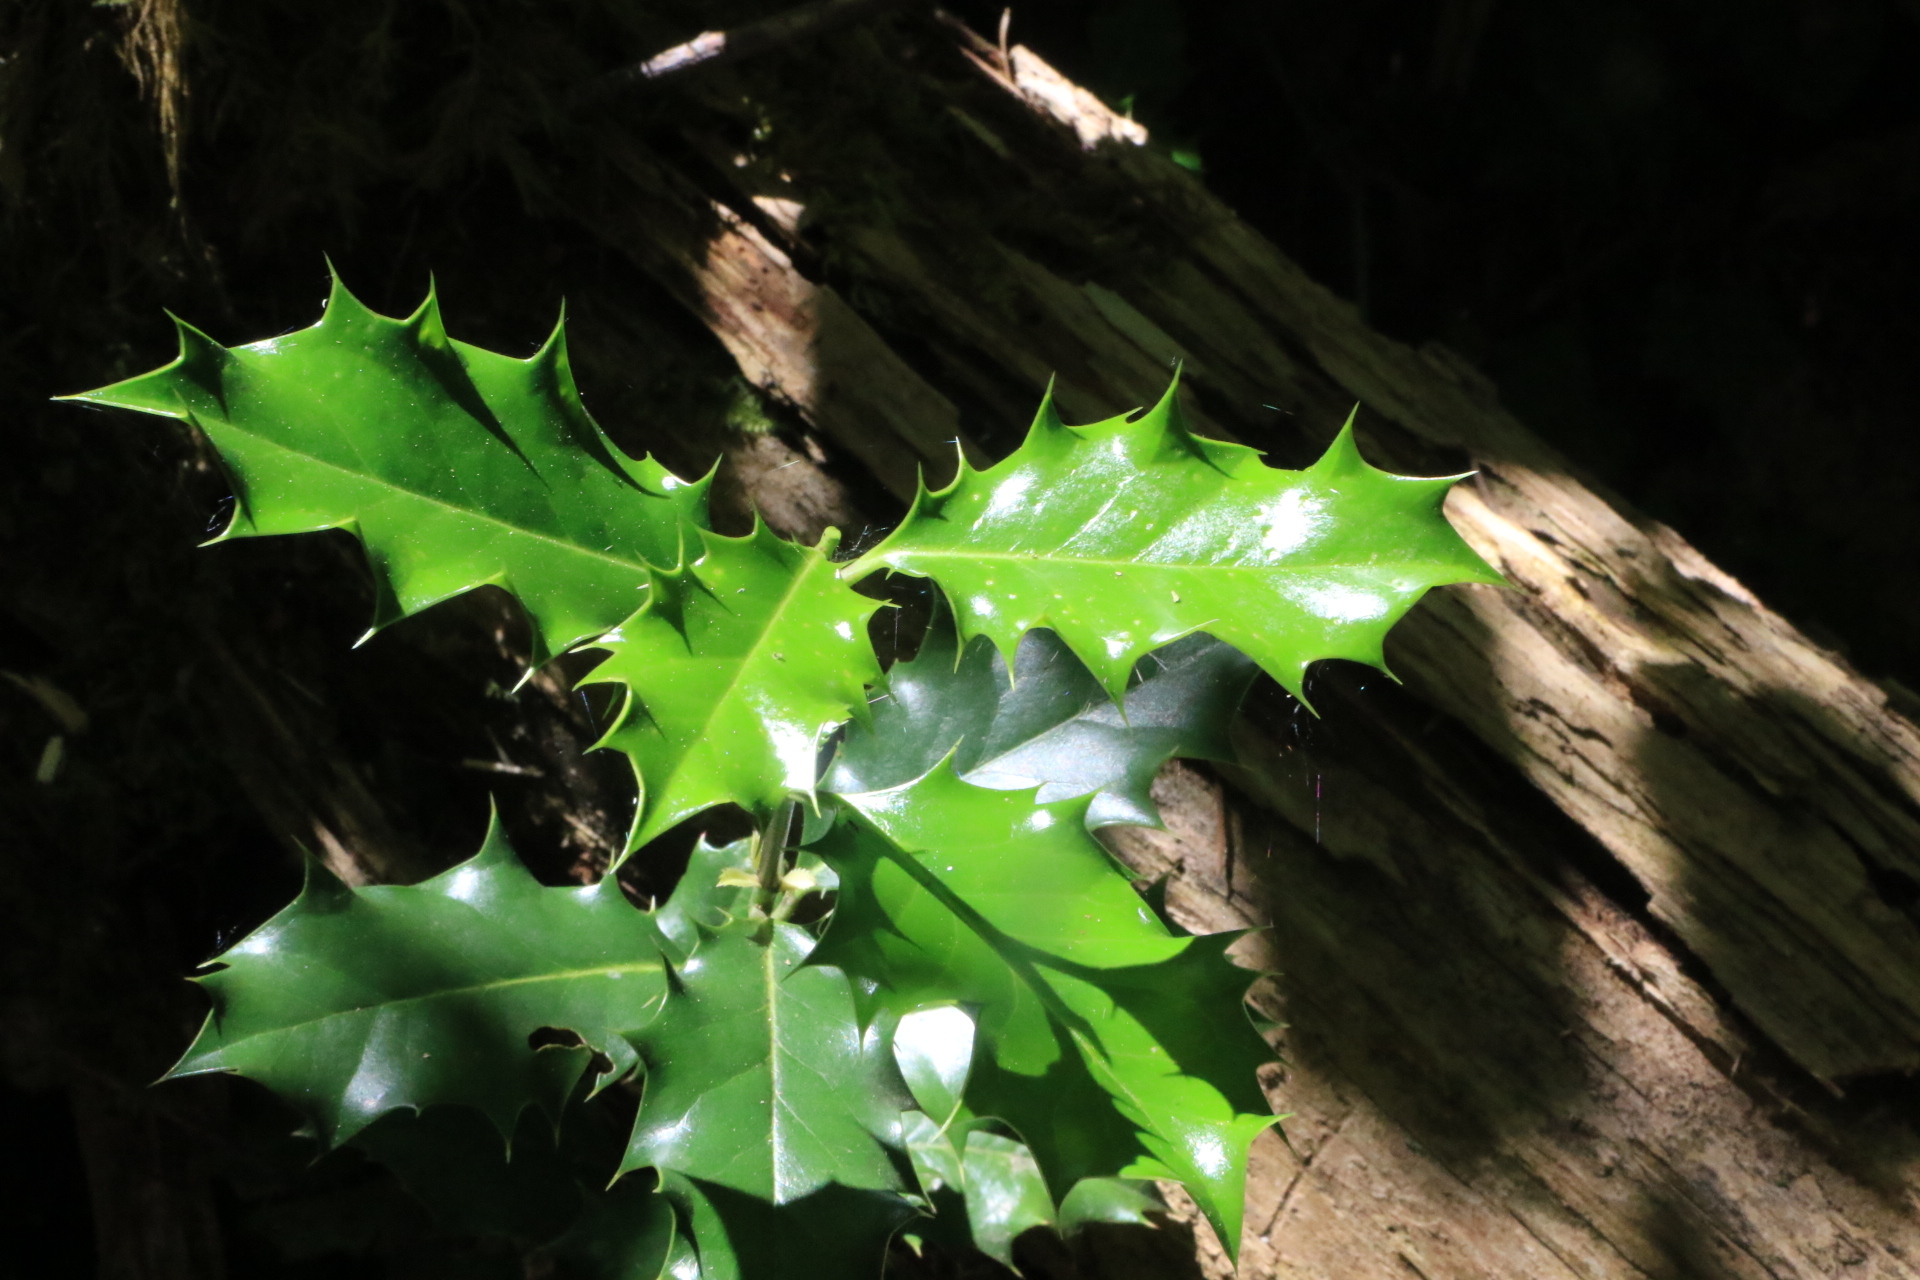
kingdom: Plantae
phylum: Tracheophyta
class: Magnoliopsida
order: Aquifoliales
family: Aquifoliaceae
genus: Ilex
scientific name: Ilex aquifolium
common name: English holly
